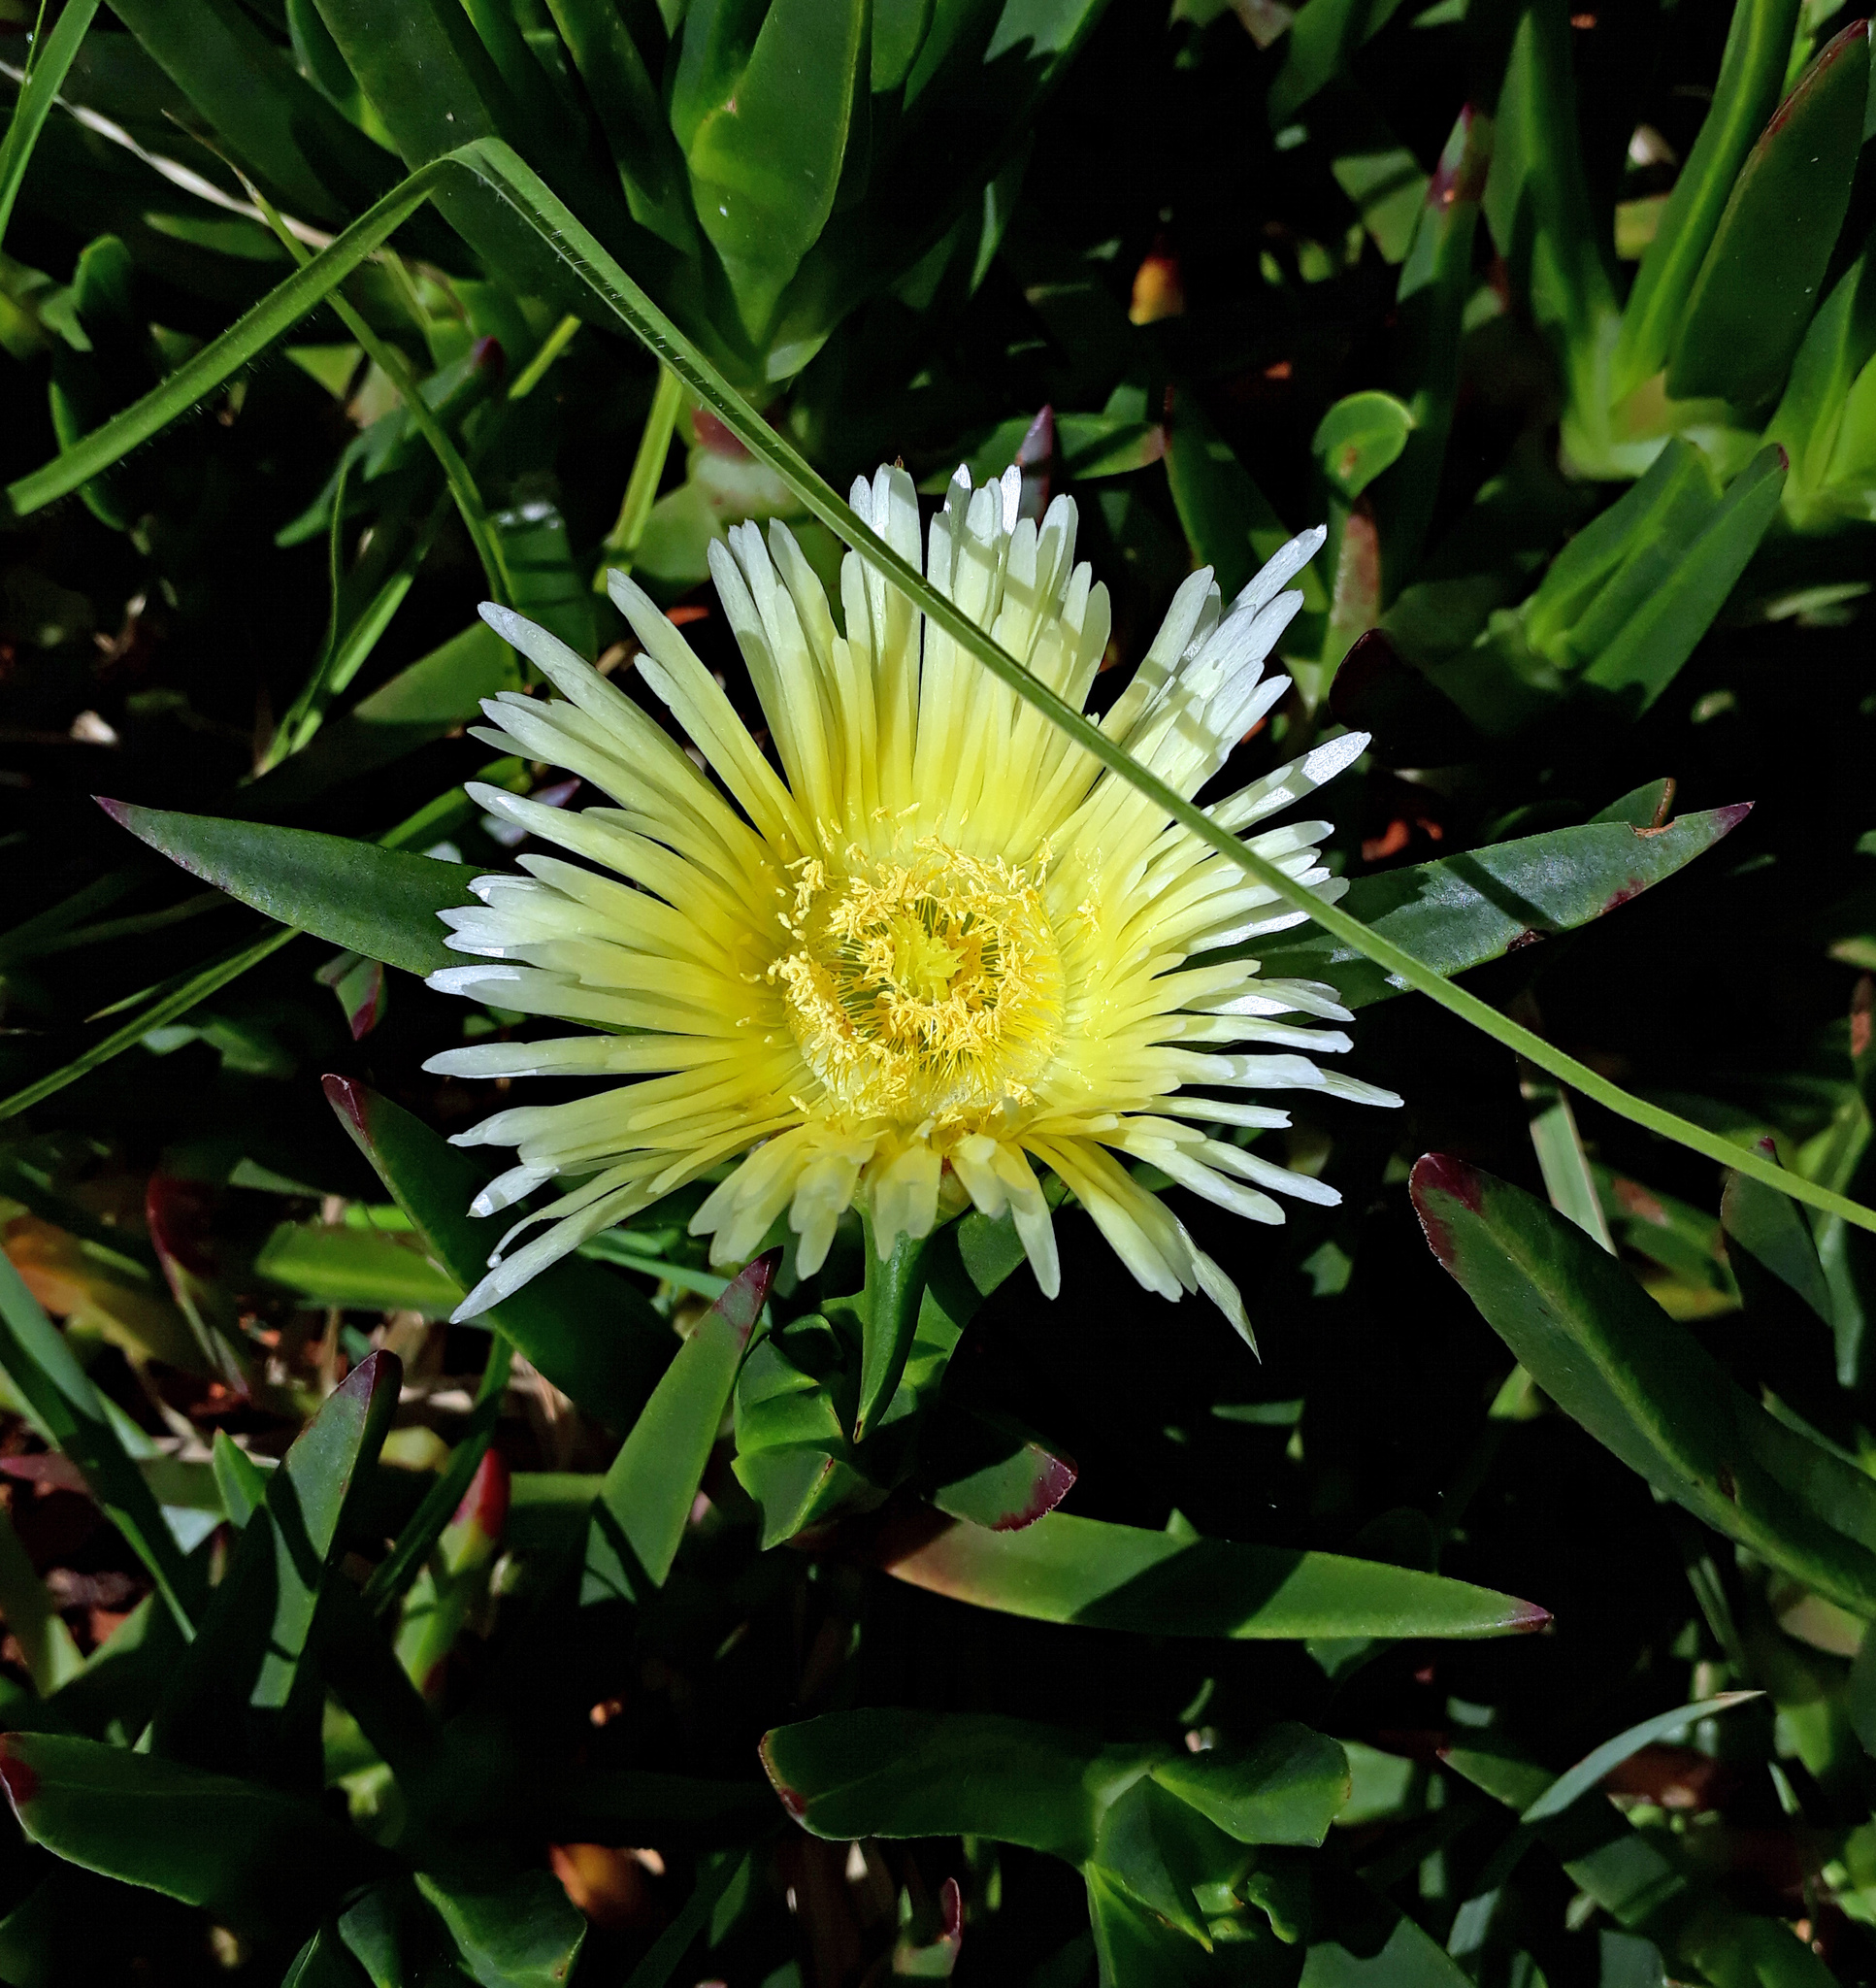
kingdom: Plantae
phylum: Tracheophyta
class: Magnoliopsida
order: Caryophyllales
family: Aizoaceae
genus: Carpobrotus
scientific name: Carpobrotus edulis
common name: Hottentot-fig
